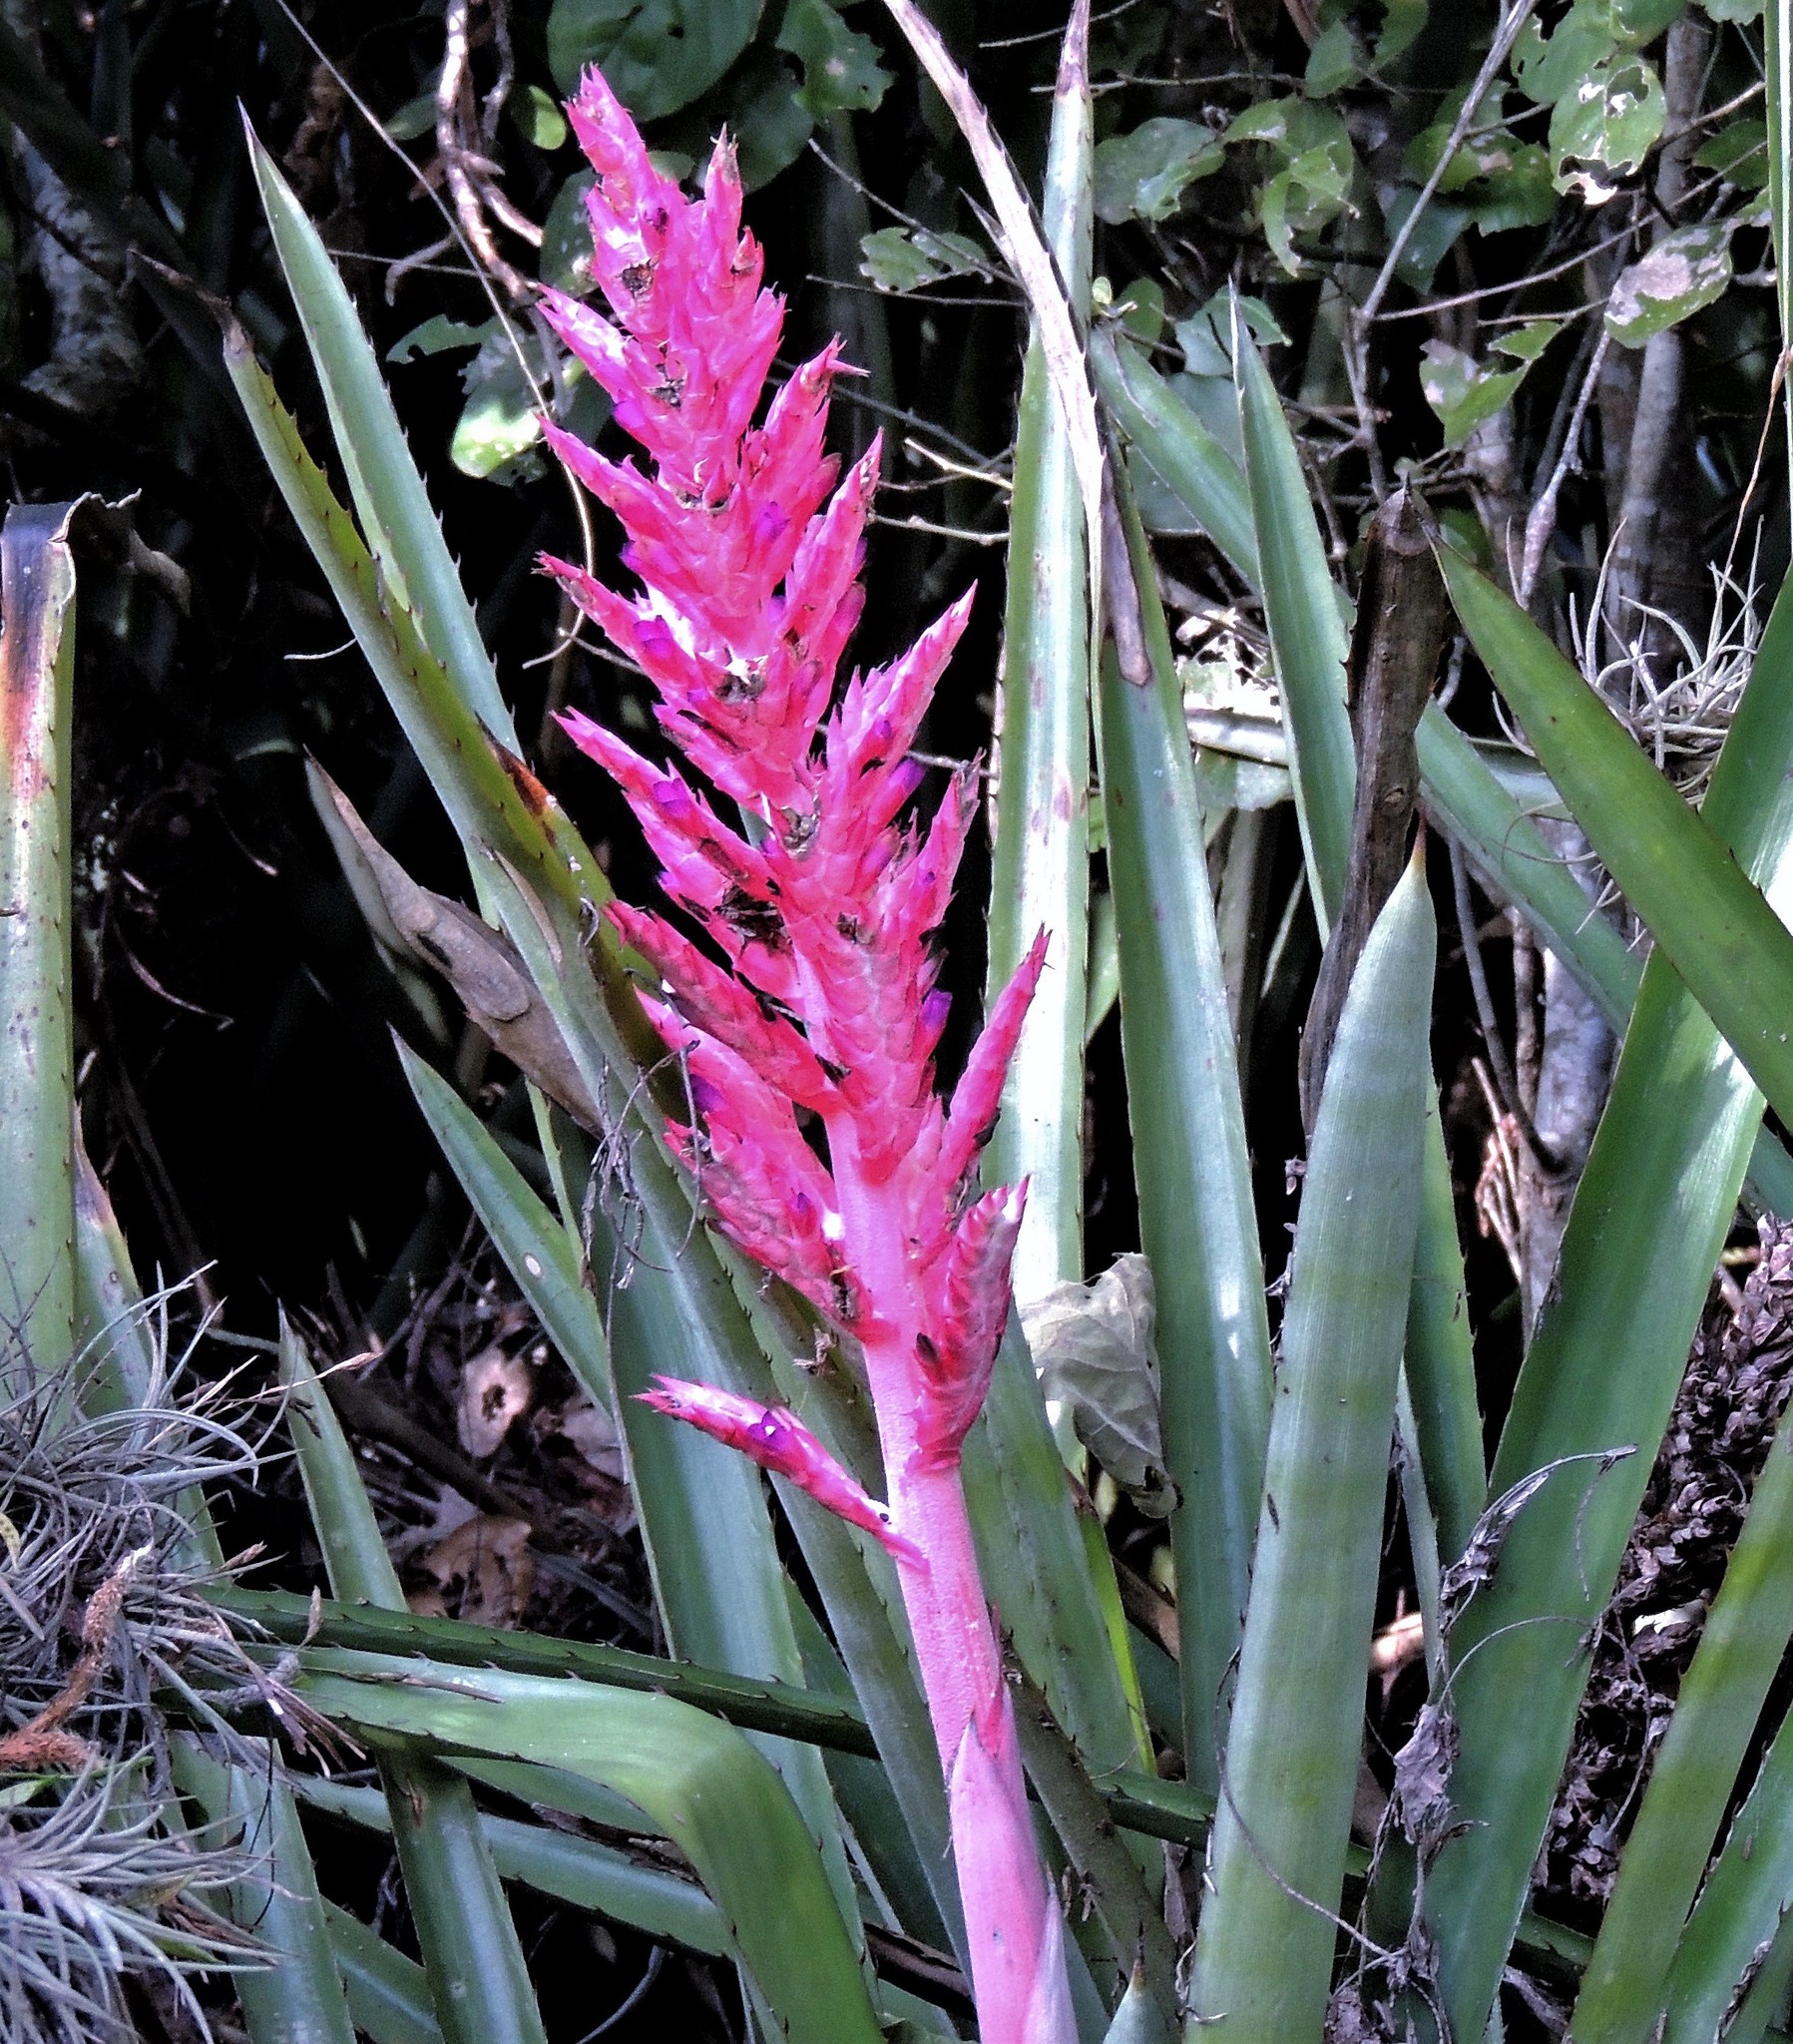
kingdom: Plantae
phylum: Tracheophyta
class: Liliopsida
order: Poales
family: Bromeliaceae
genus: Aechmea
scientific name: Aechmea distichantha
